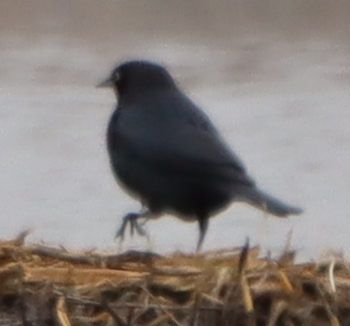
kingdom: Animalia
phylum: Chordata
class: Aves
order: Passeriformes
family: Icteridae
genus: Euphagus
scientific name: Euphagus cyanocephalus
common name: Brewer's blackbird
